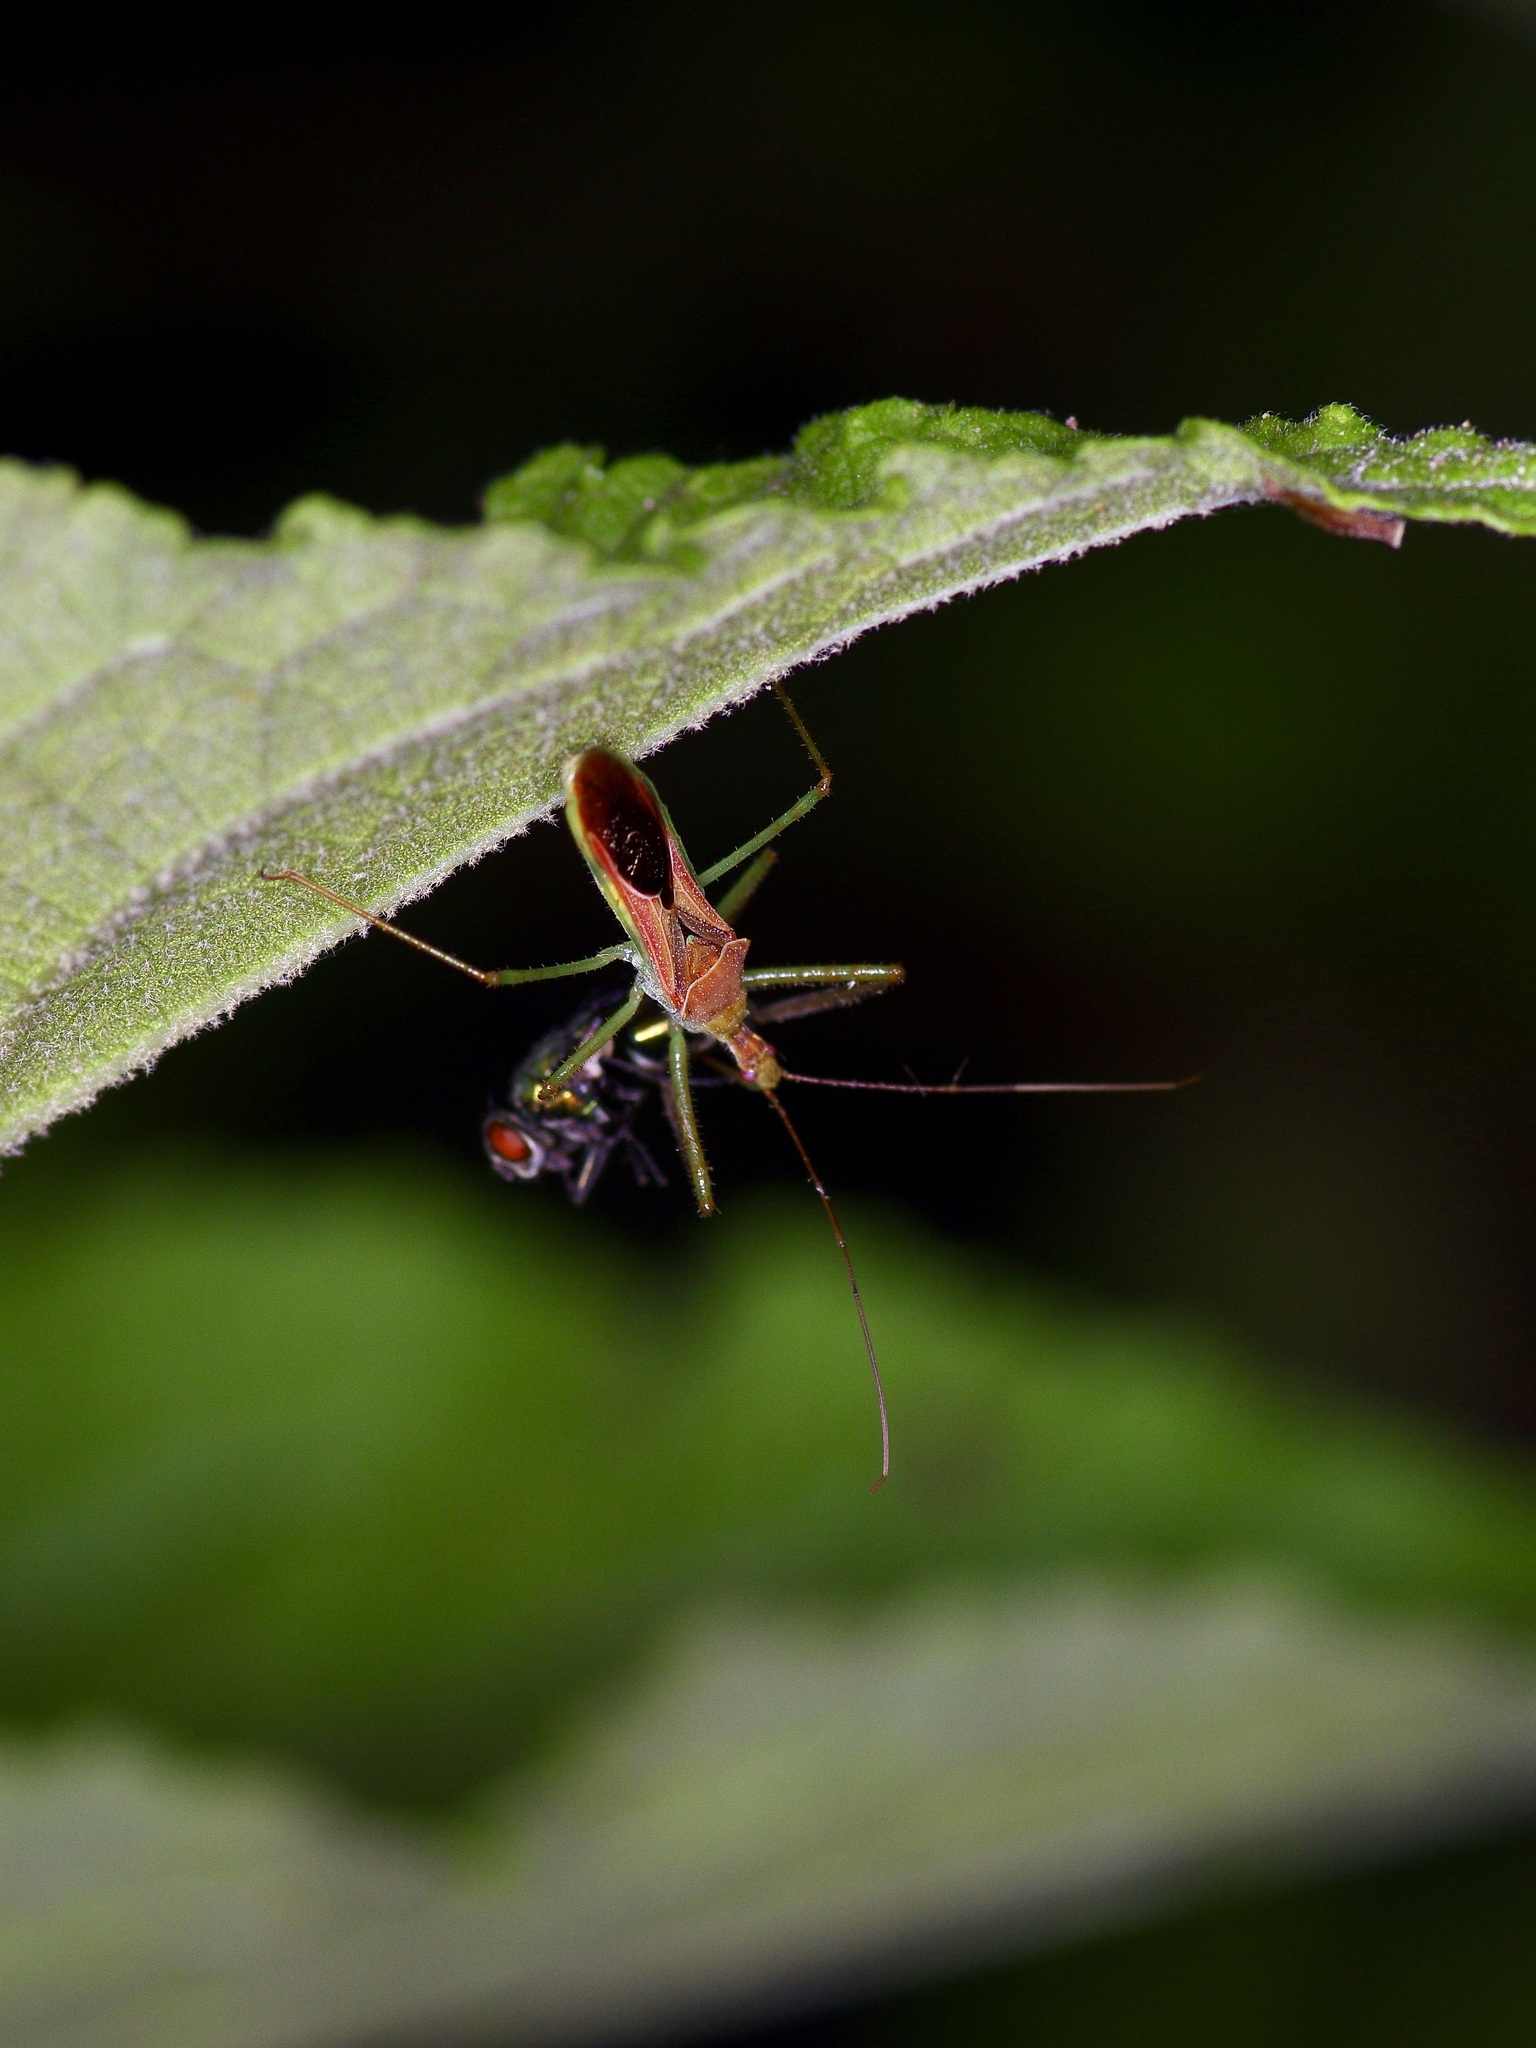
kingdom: Animalia
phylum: Arthropoda
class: Insecta
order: Hemiptera
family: Reduviidae
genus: Zelus
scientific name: Zelus renardii
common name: Assassin bug
